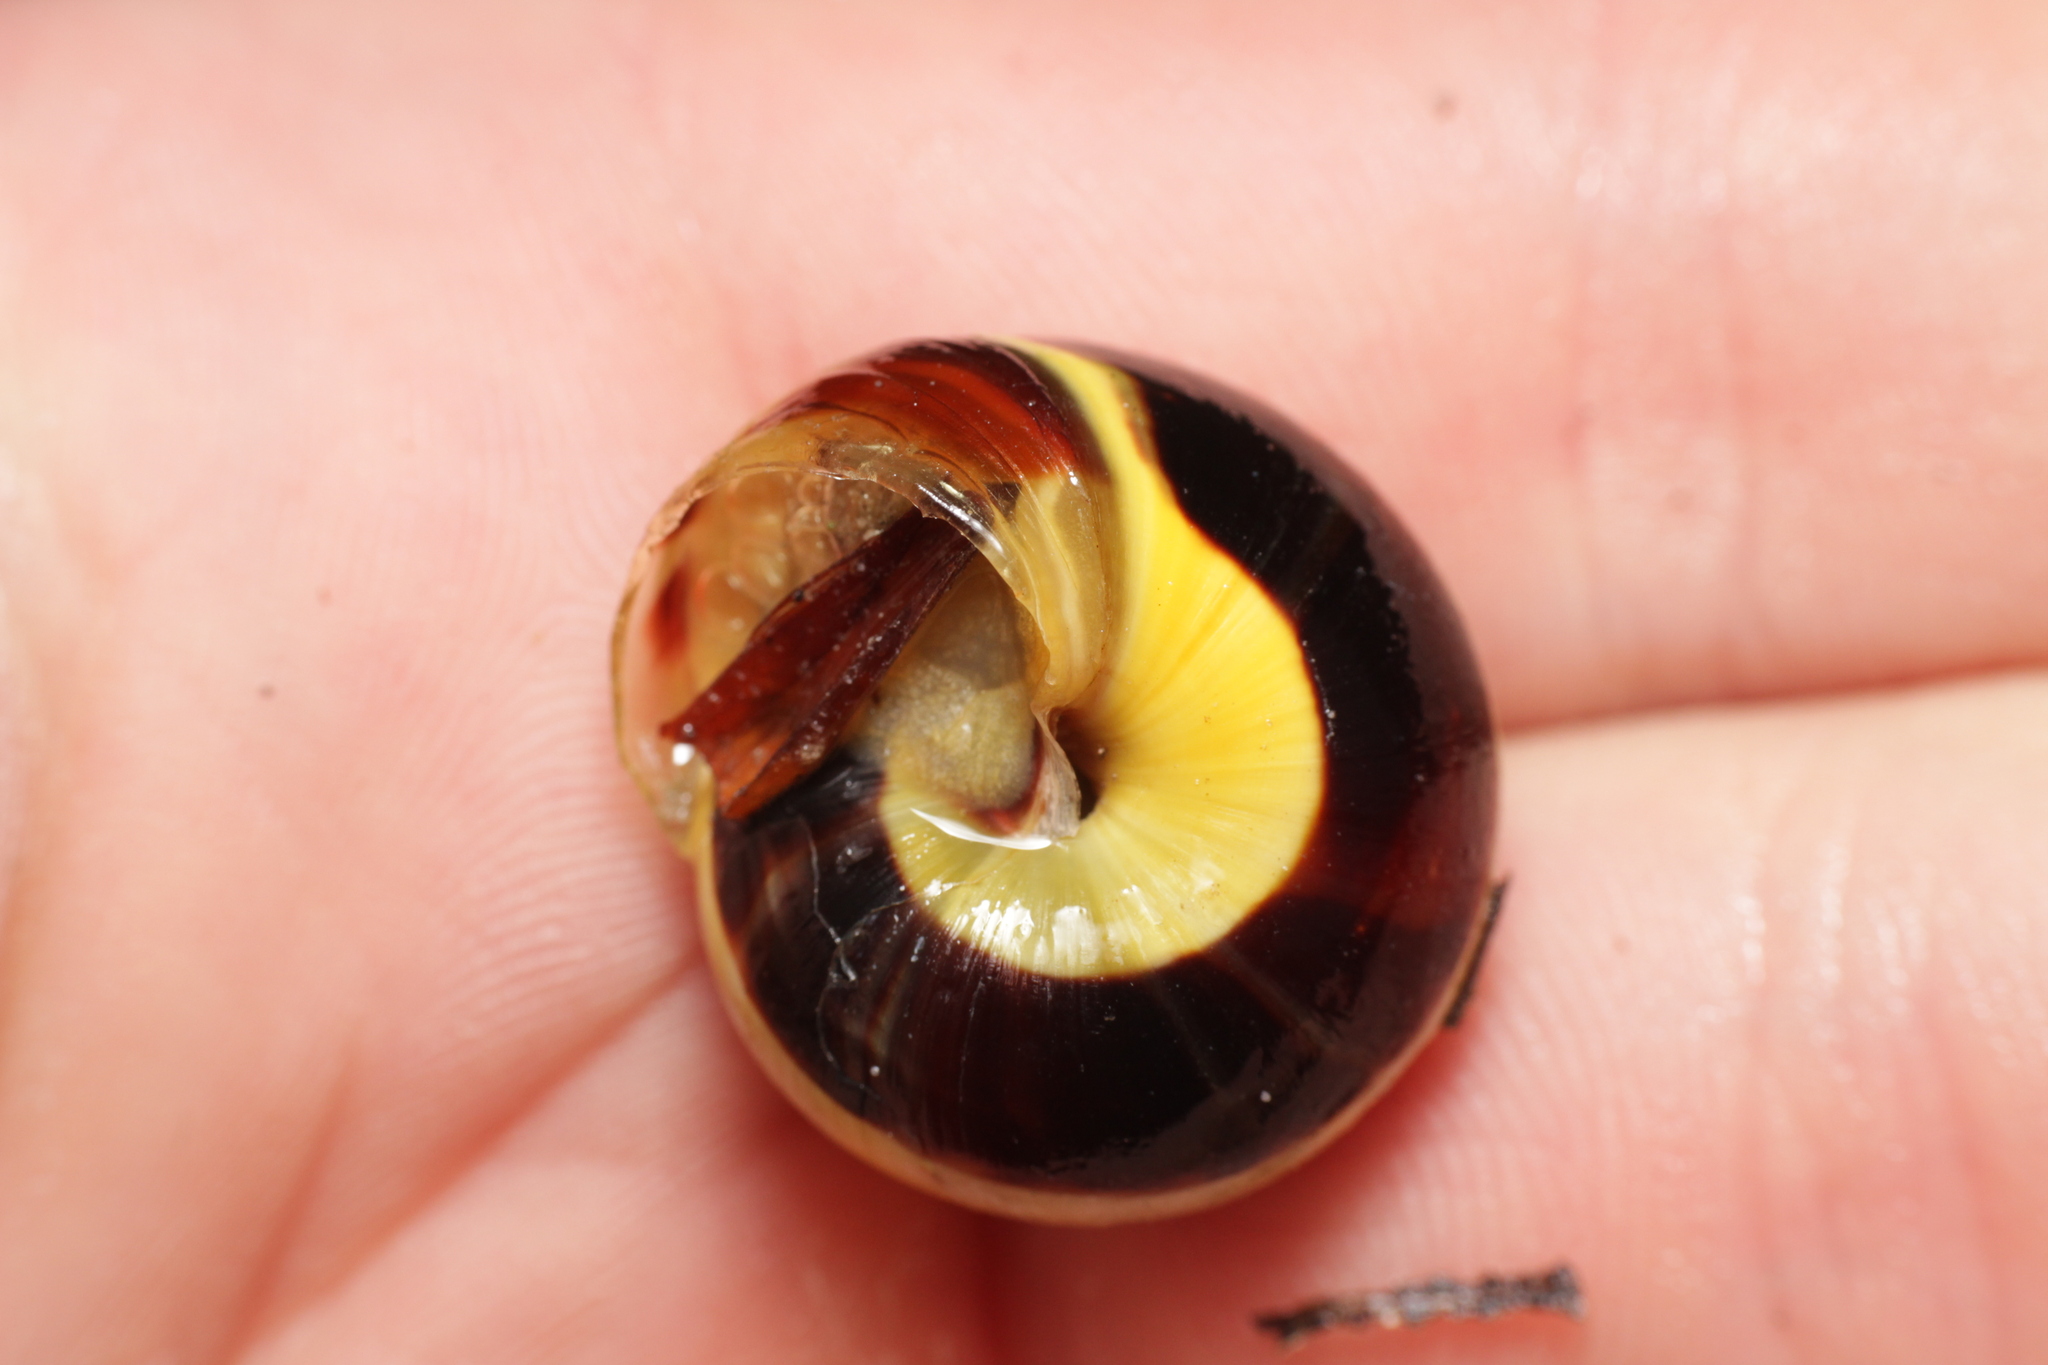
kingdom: Animalia
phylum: Mollusca
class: Gastropoda
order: Stylommatophora
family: Helicidae
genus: Cepaea
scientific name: Cepaea
